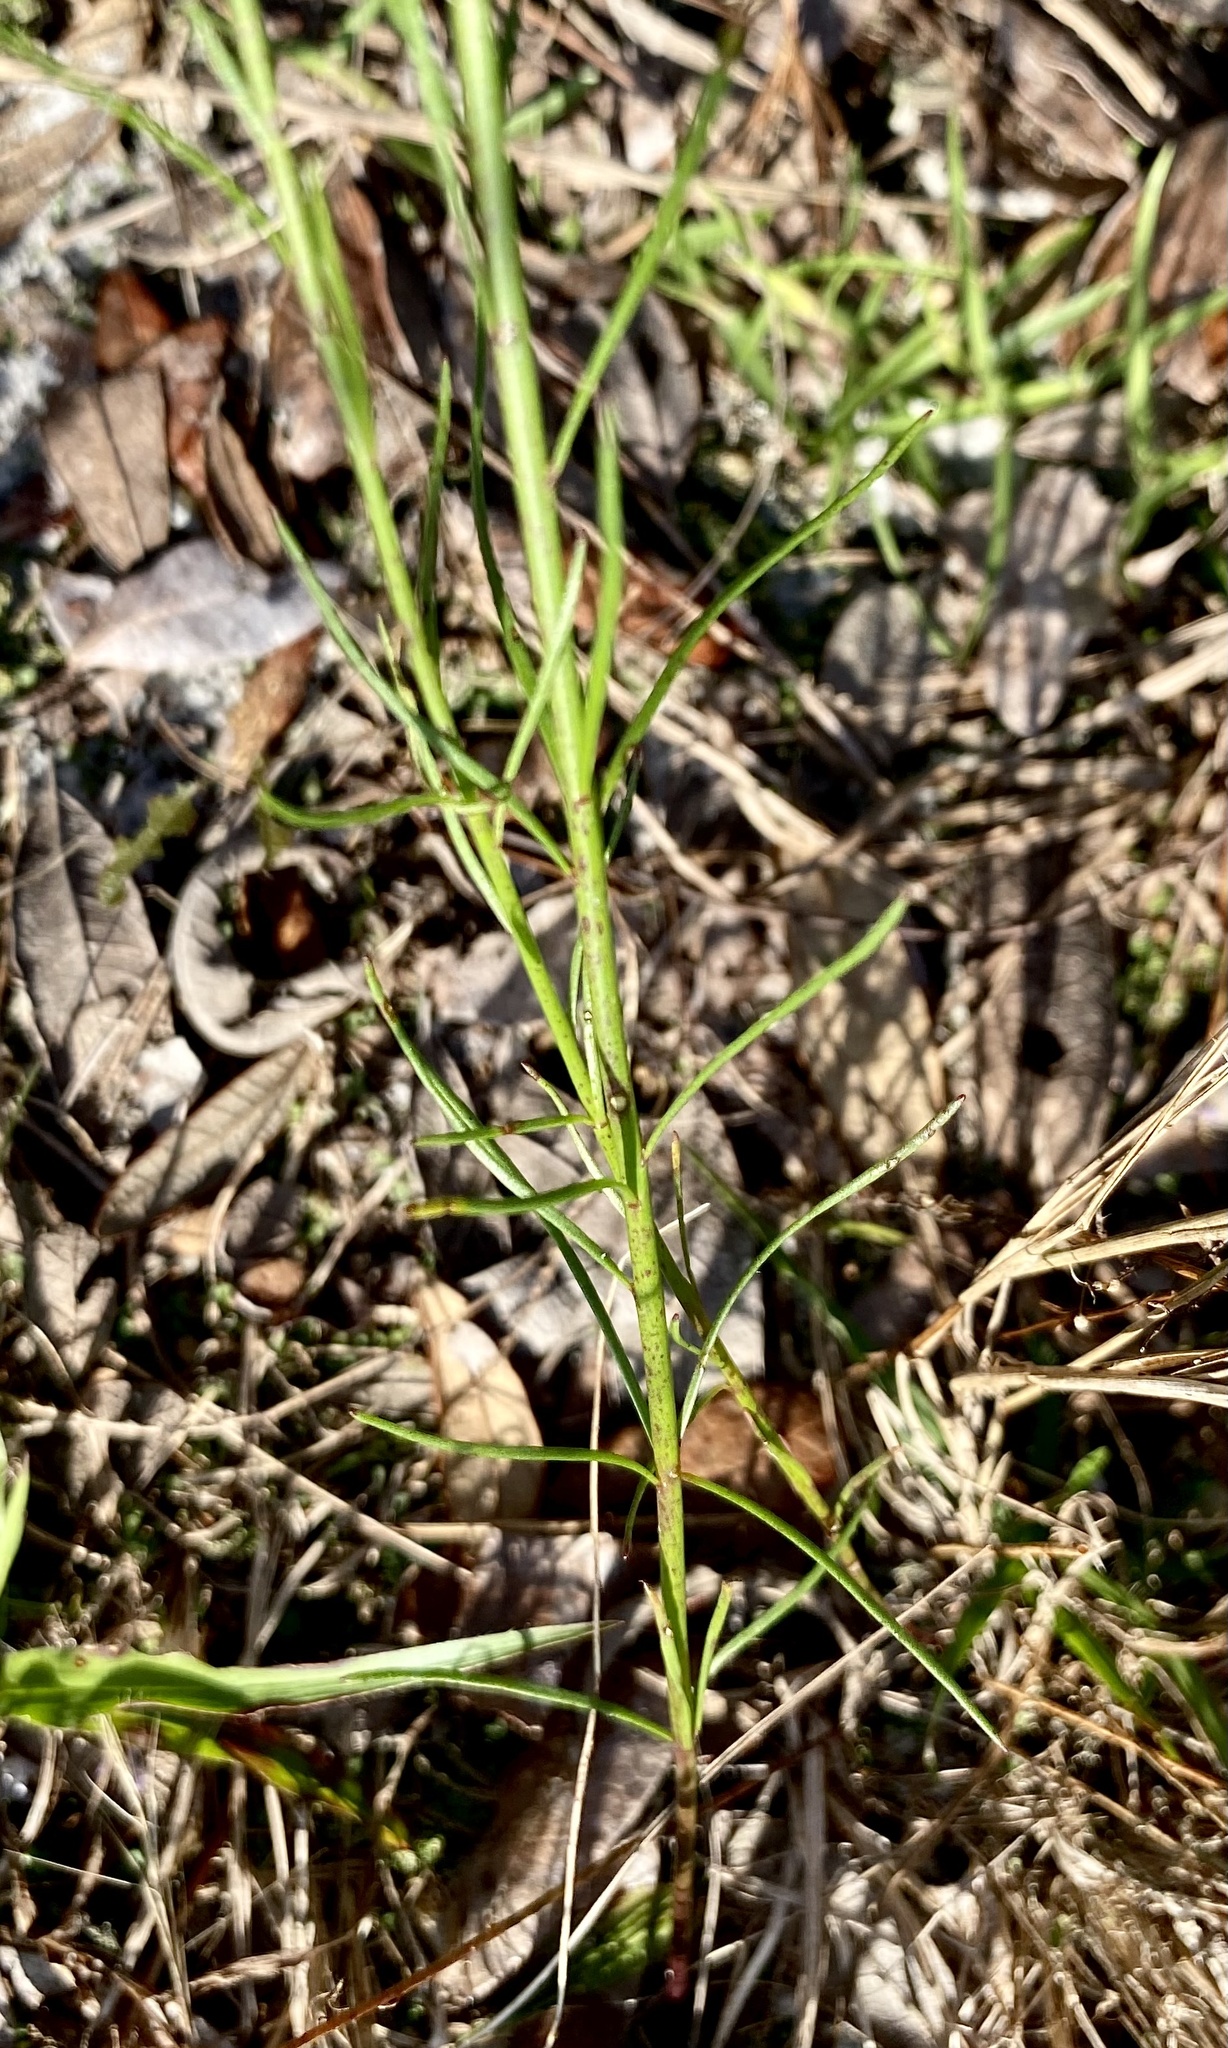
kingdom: Plantae
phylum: Tracheophyta
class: Magnoliopsida
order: Lamiales
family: Plantaginaceae
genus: Nuttallanthus
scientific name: Nuttallanthus floridanus
